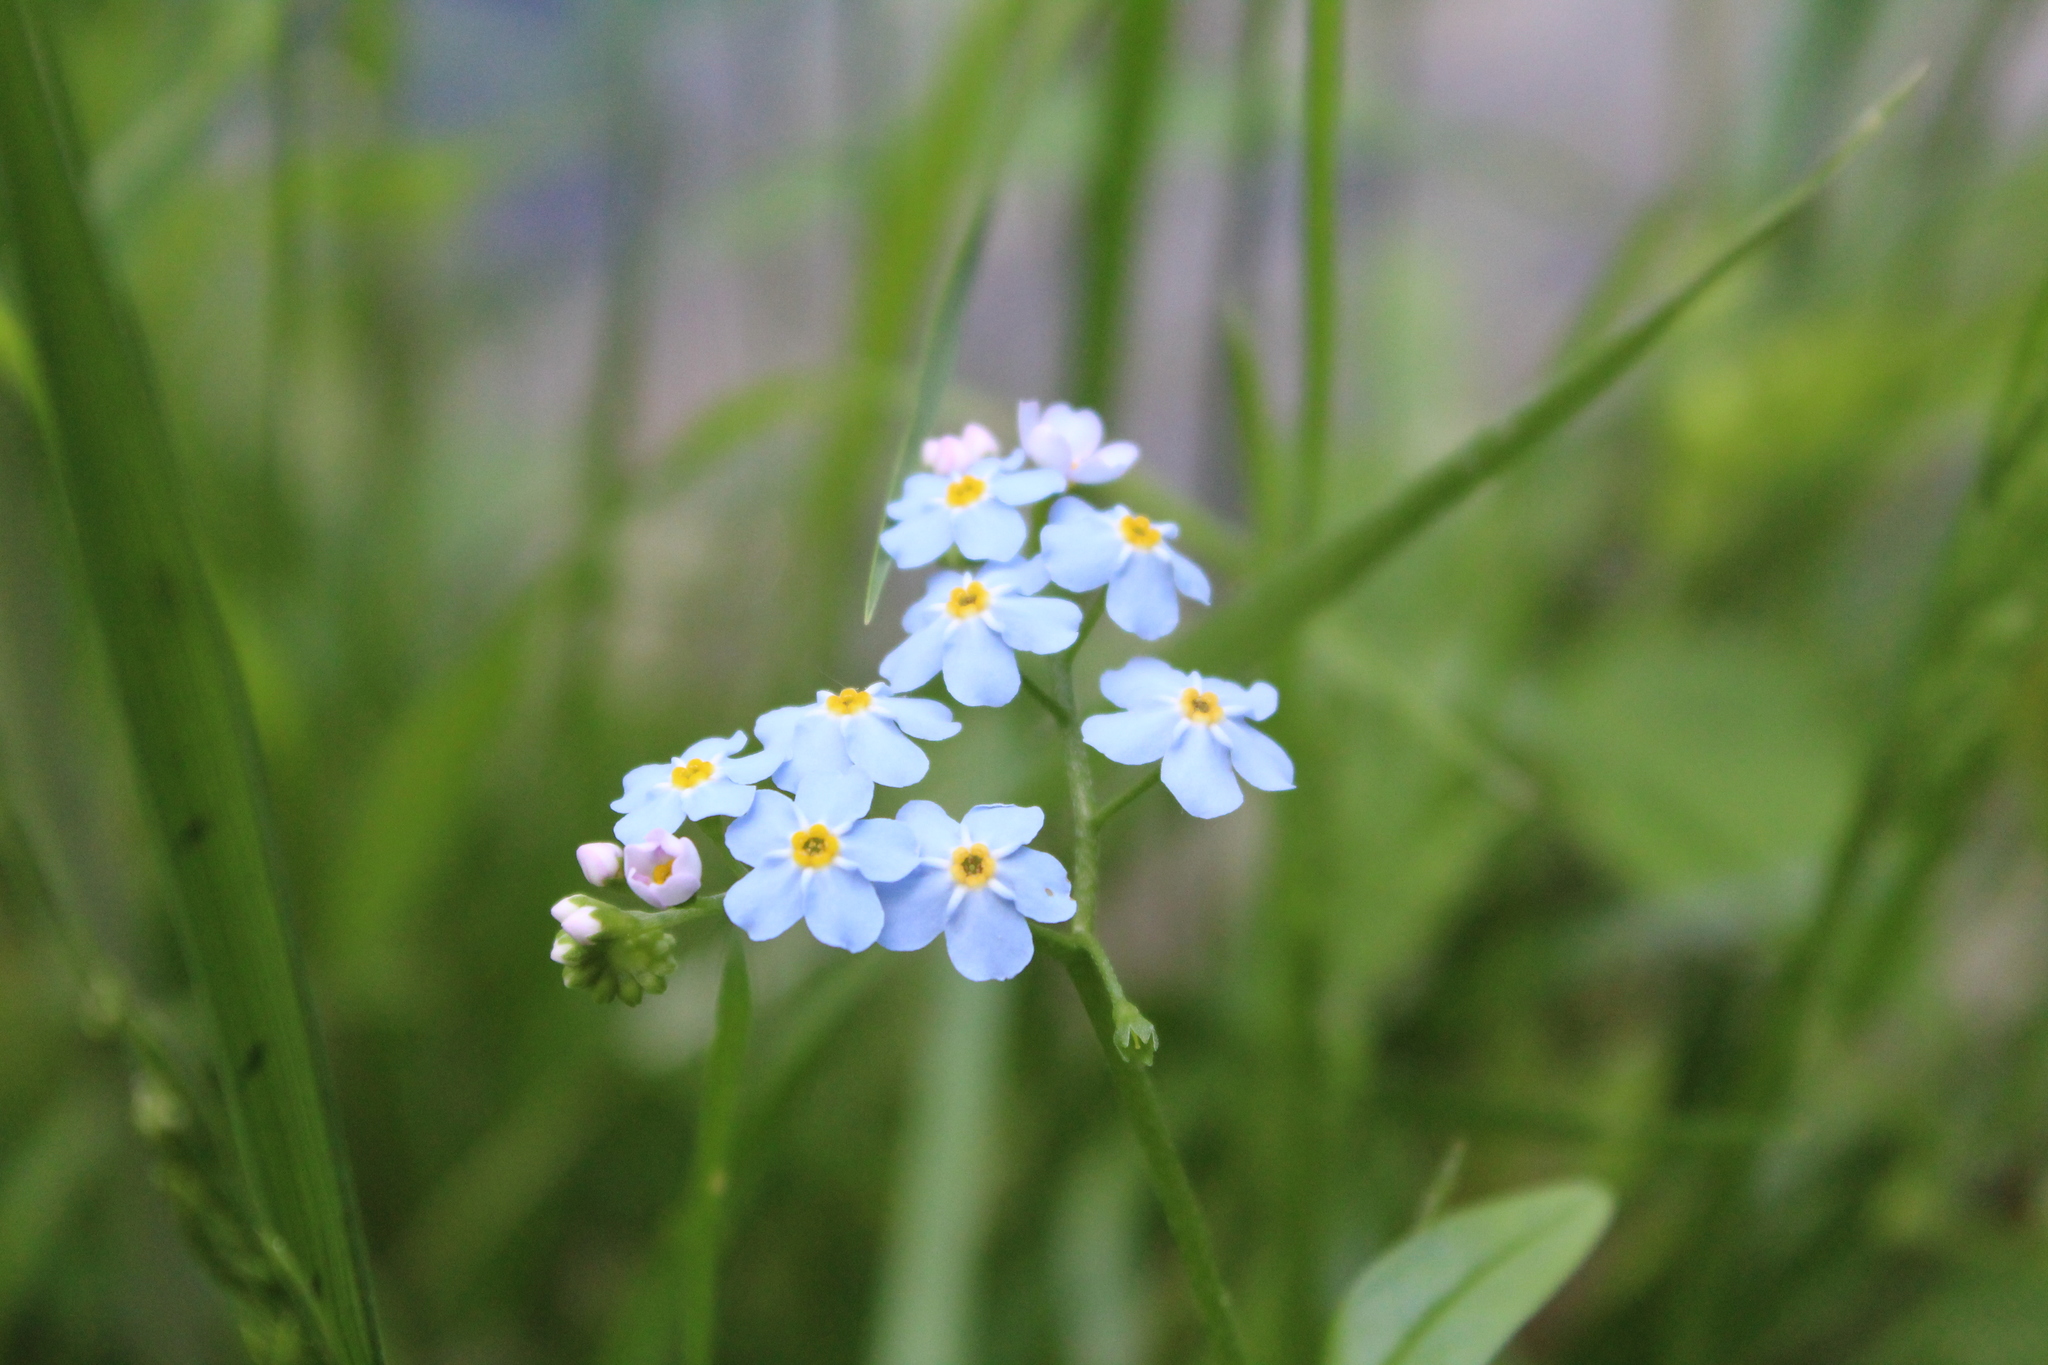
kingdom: Plantae
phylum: Tracheophyta
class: Magnoliopsida
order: Boraginales
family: Boraginaceae
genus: Myosotis
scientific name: Myosotis scorpioides
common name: Water forget-me-not
